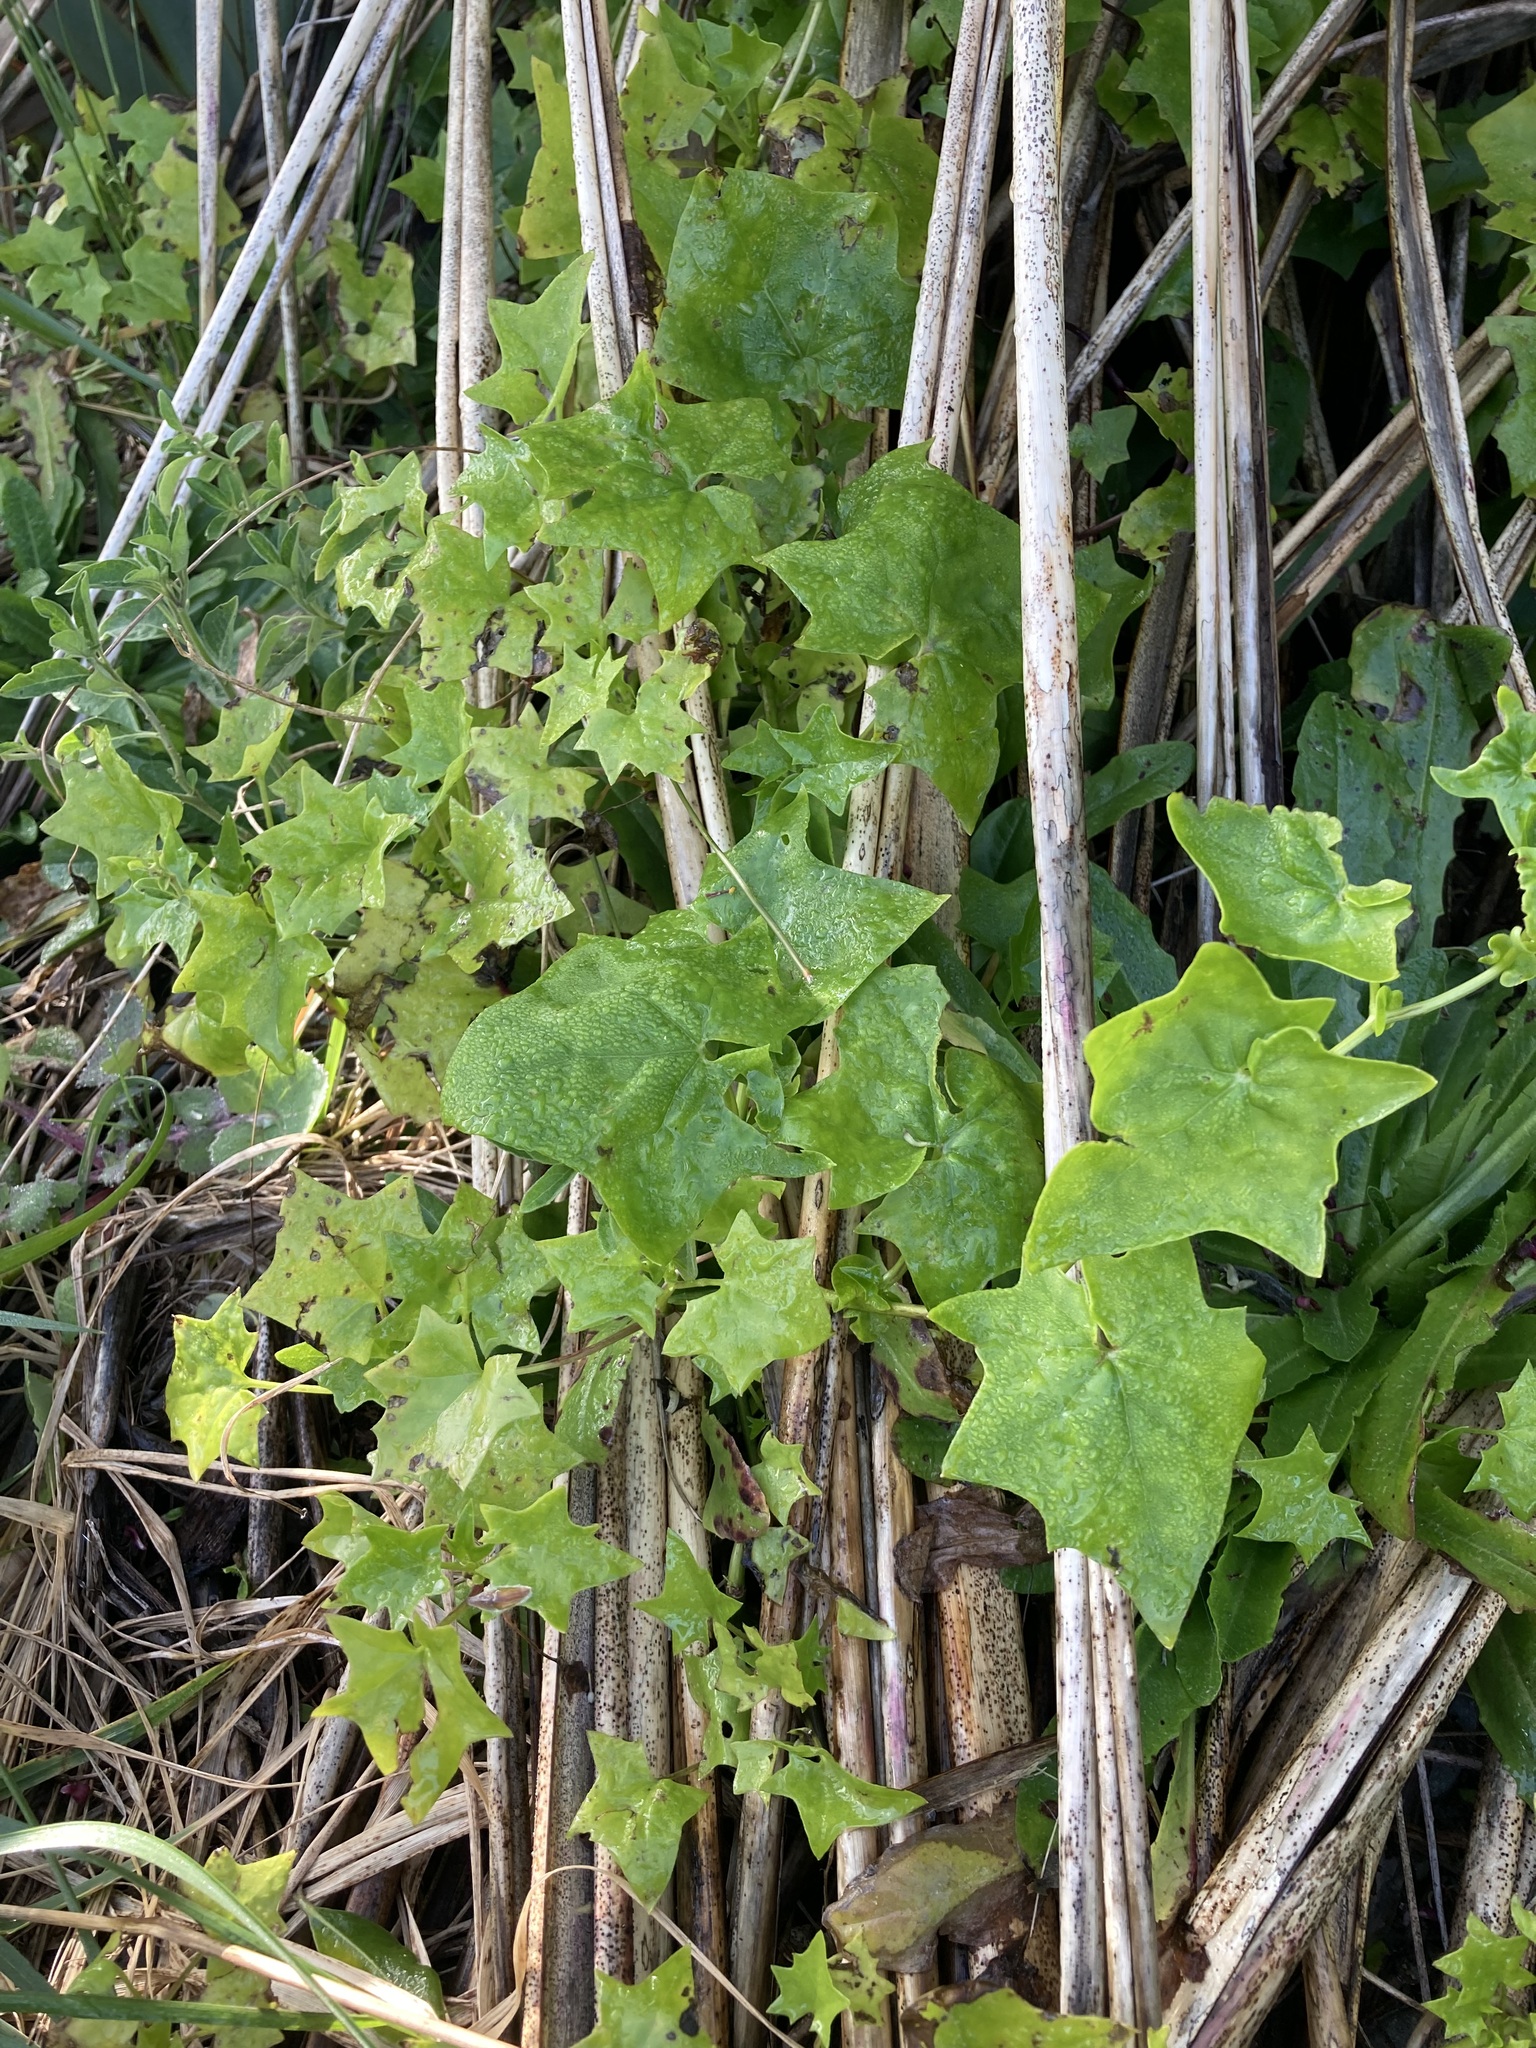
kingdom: Plantae
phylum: Tracheophyta
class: Magnoliopsida
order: Asterales
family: Asteraceae
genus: Delairea
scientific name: Delairea odorata
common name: Cape-ivy
